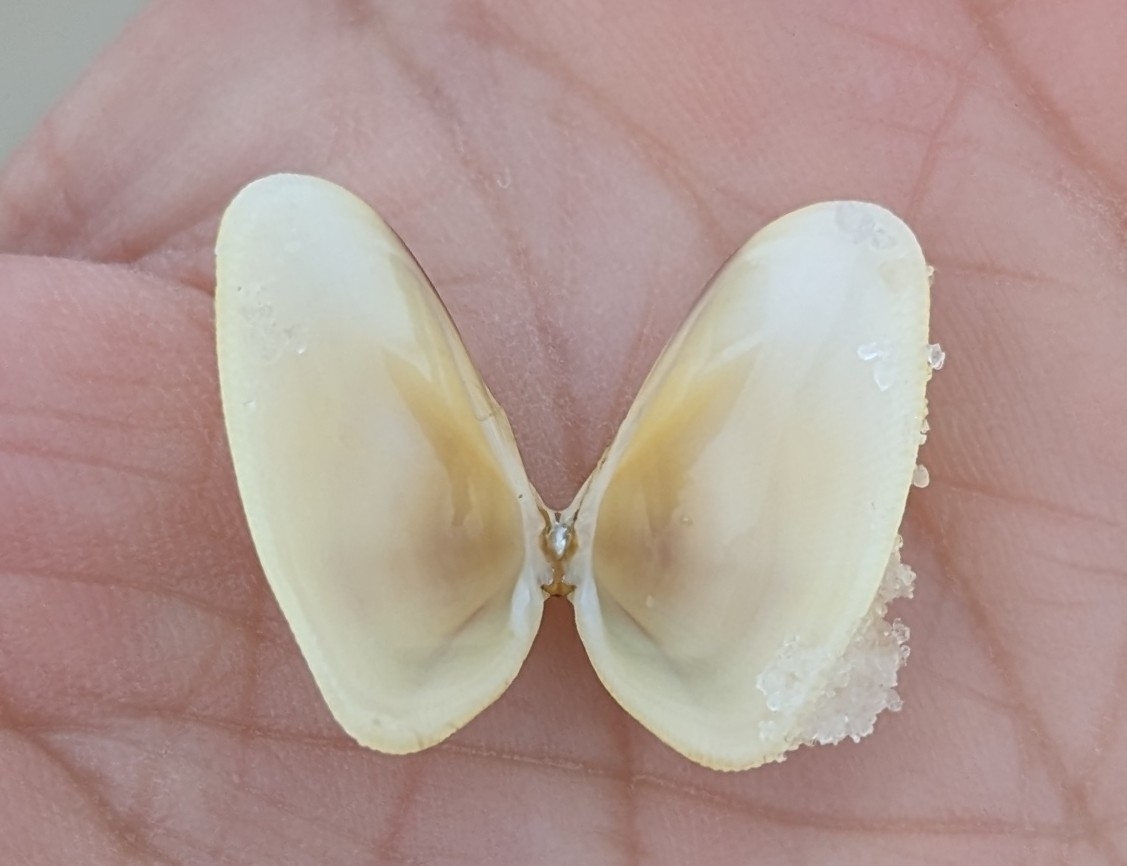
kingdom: Animalia
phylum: Mollusca
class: Bivalvia
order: Cardiida
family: Donacidae
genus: Donax
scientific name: Donax variabilis
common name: Butterfly shell
